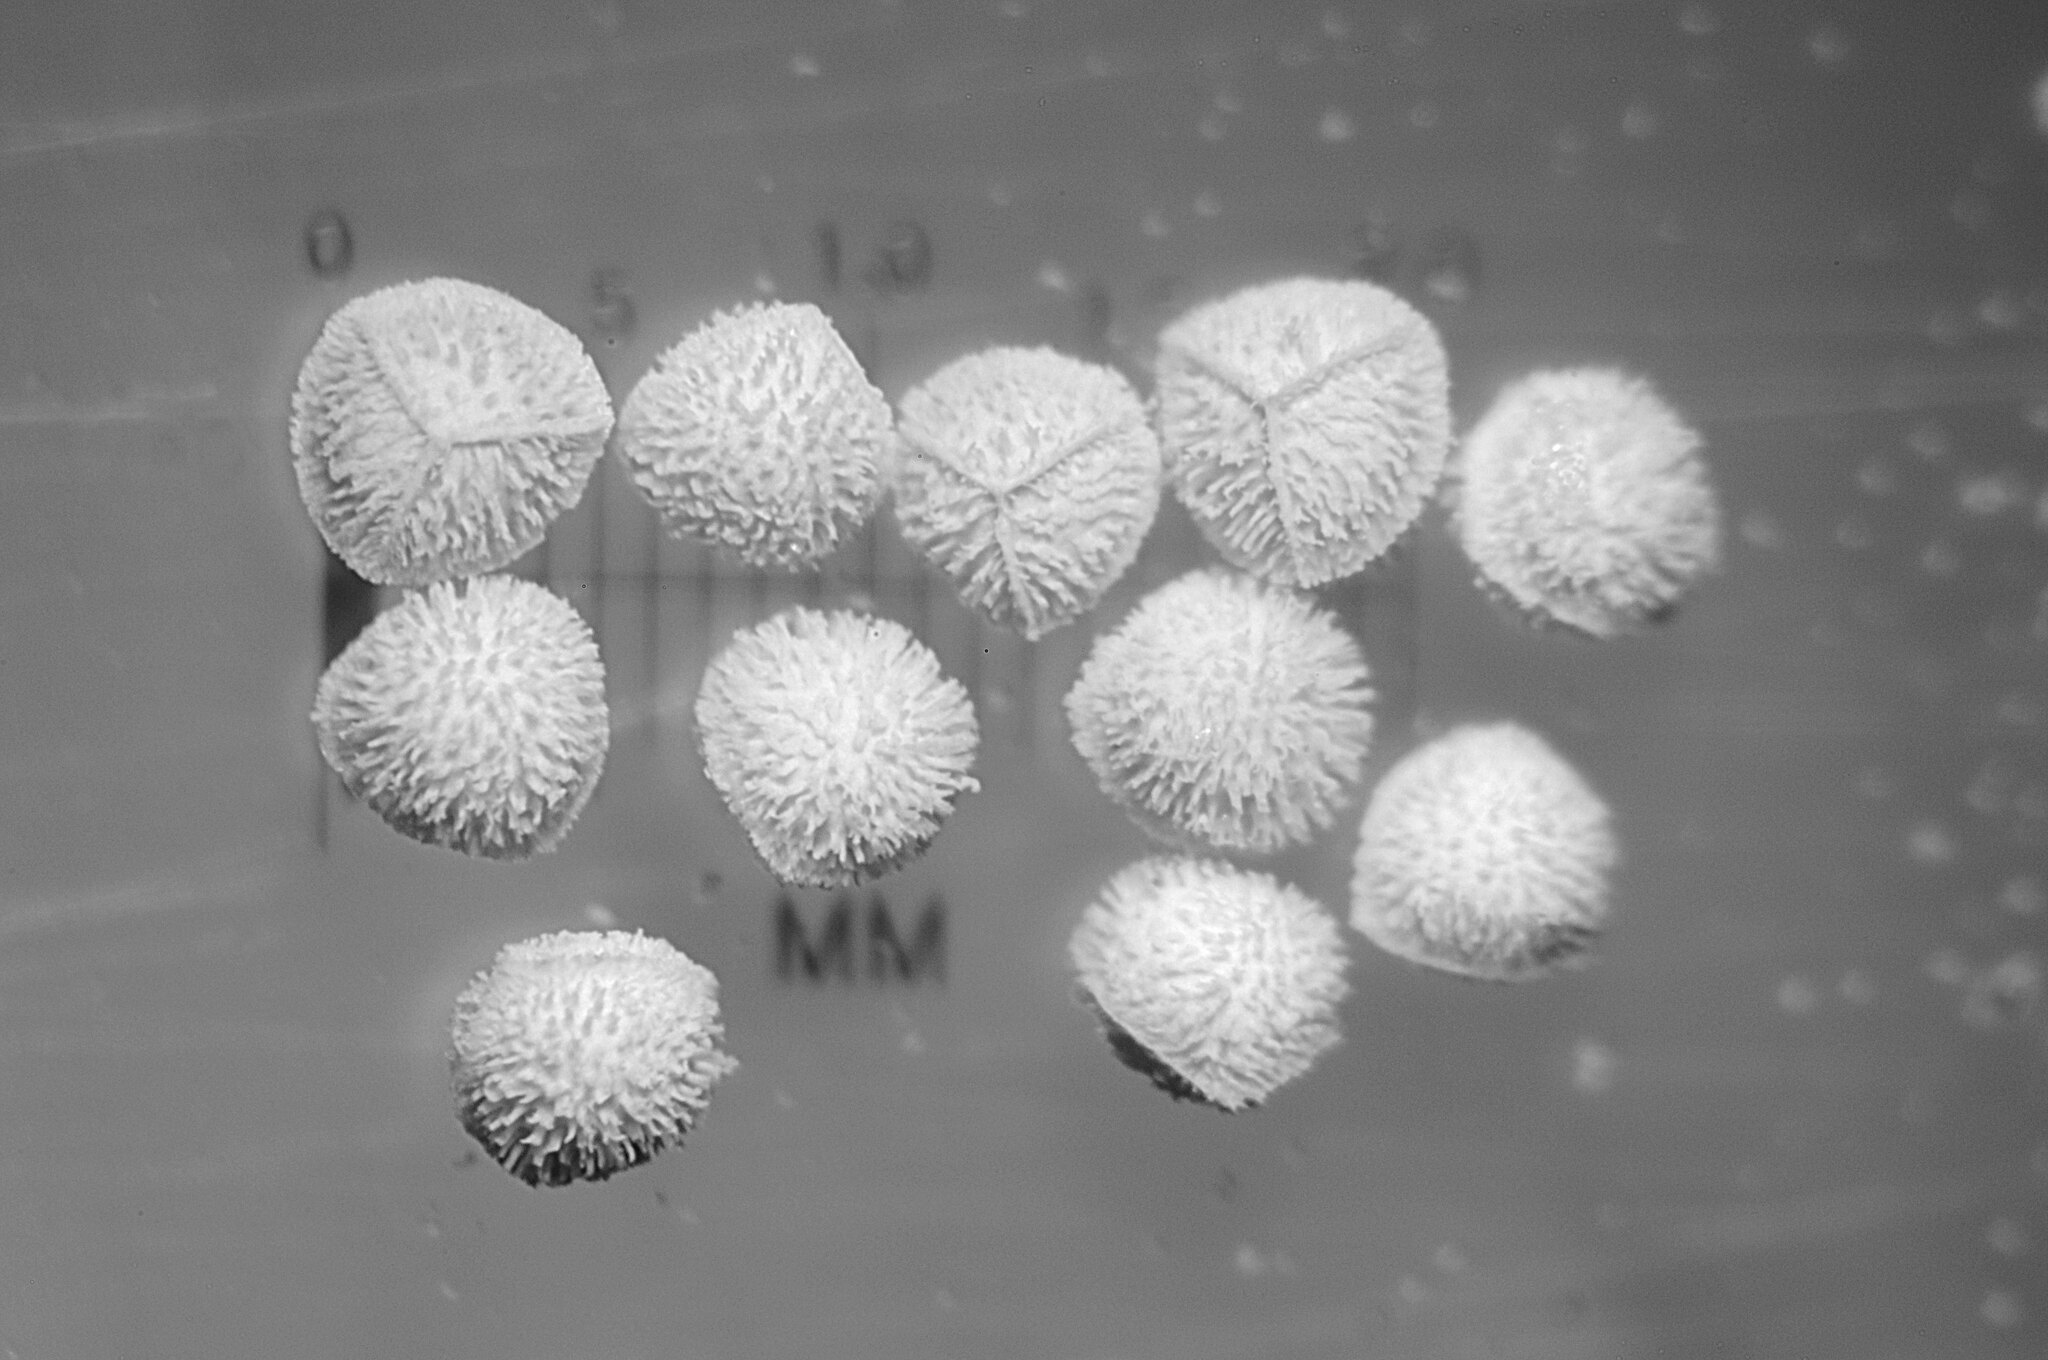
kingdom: Plantae
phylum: Tracheophyta
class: Lycopodiopsida
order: Isoetales
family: Isoetaceae
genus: Isoetes
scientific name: Isoetes echinospora
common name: Spring quillwort
